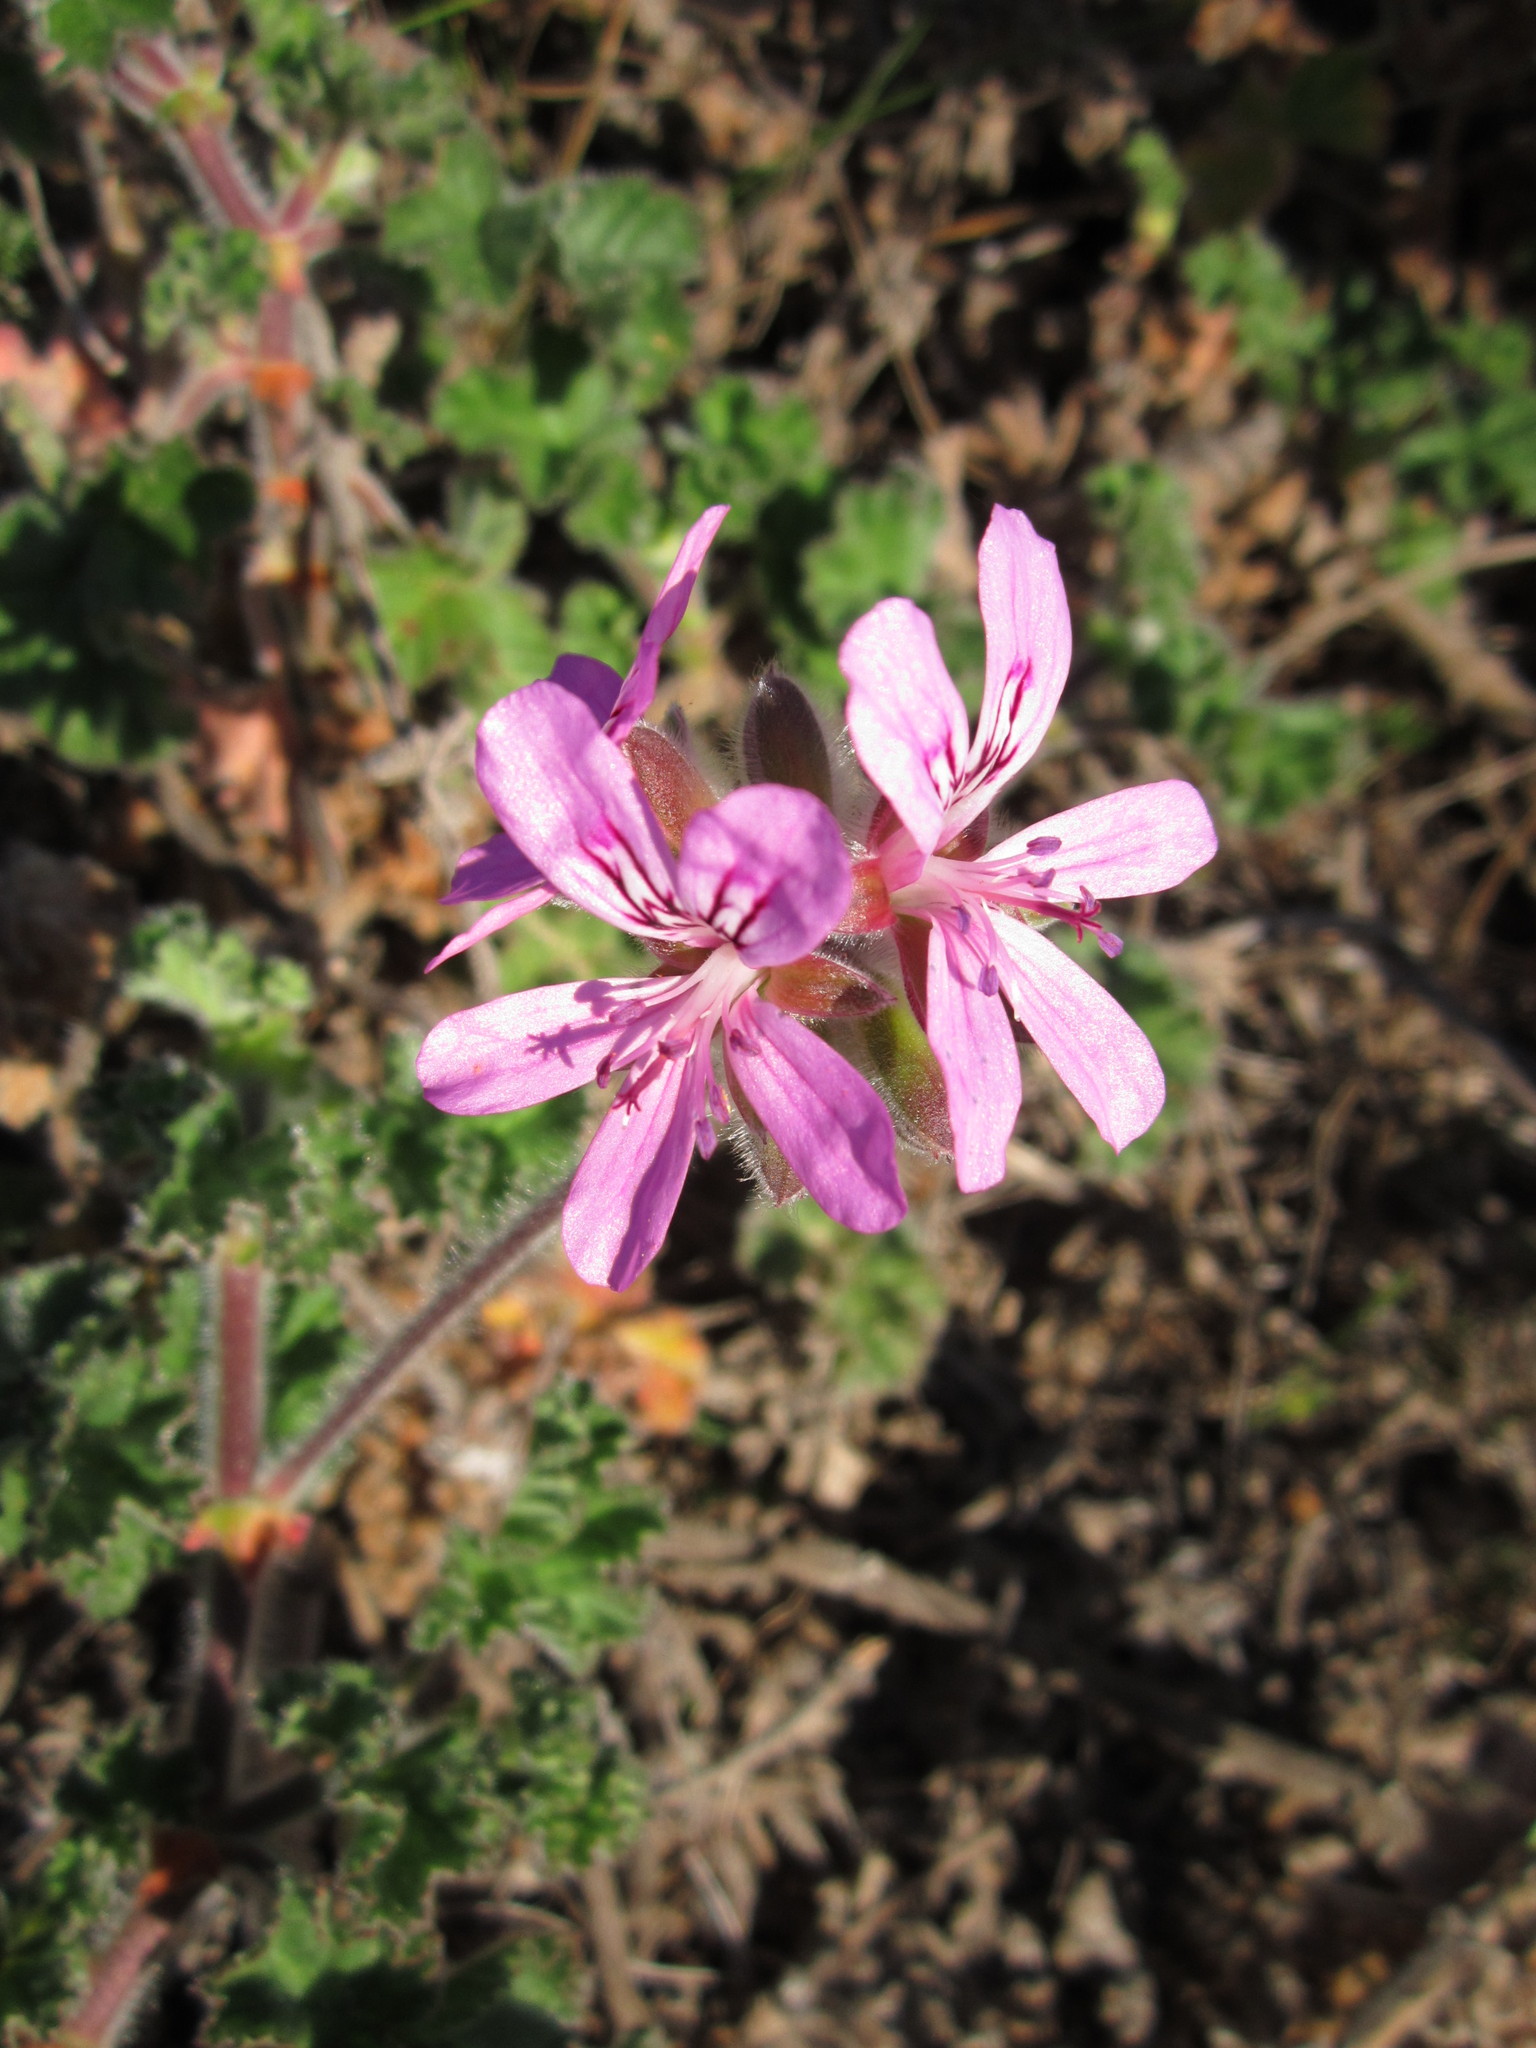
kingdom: Plantae
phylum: Tracheophyta
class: Magnoliopsida
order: Geraniales
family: Geraniaceae
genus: Pelargonium
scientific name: Pelargonium capitatum
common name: Rose scented geranium
